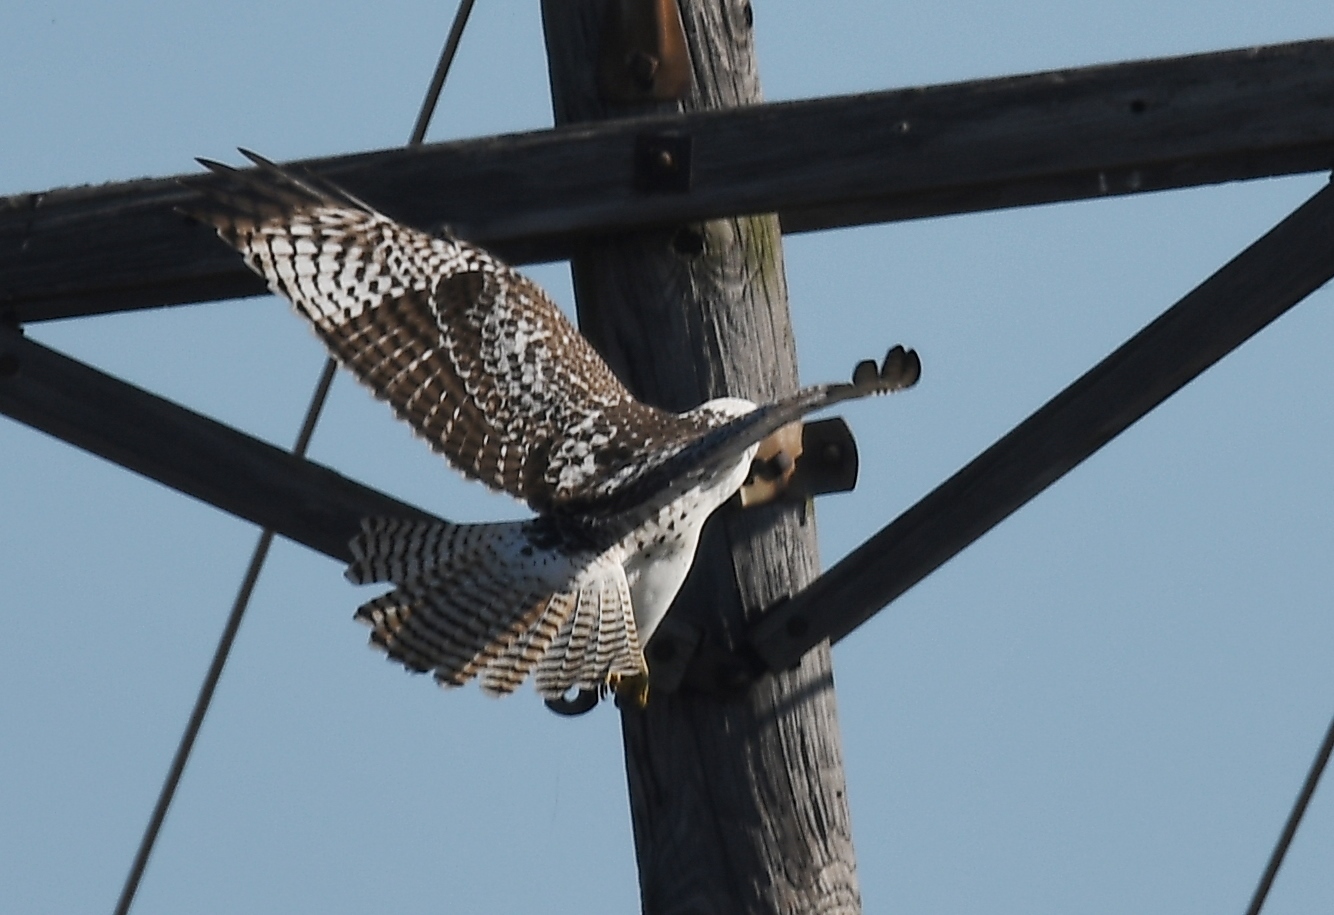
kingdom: Animalia
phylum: Chordata
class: Aves
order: Accipitriformes
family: Accipitridae
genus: Buteo
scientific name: Buteo jamaicensis
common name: Red-tailed hawk
